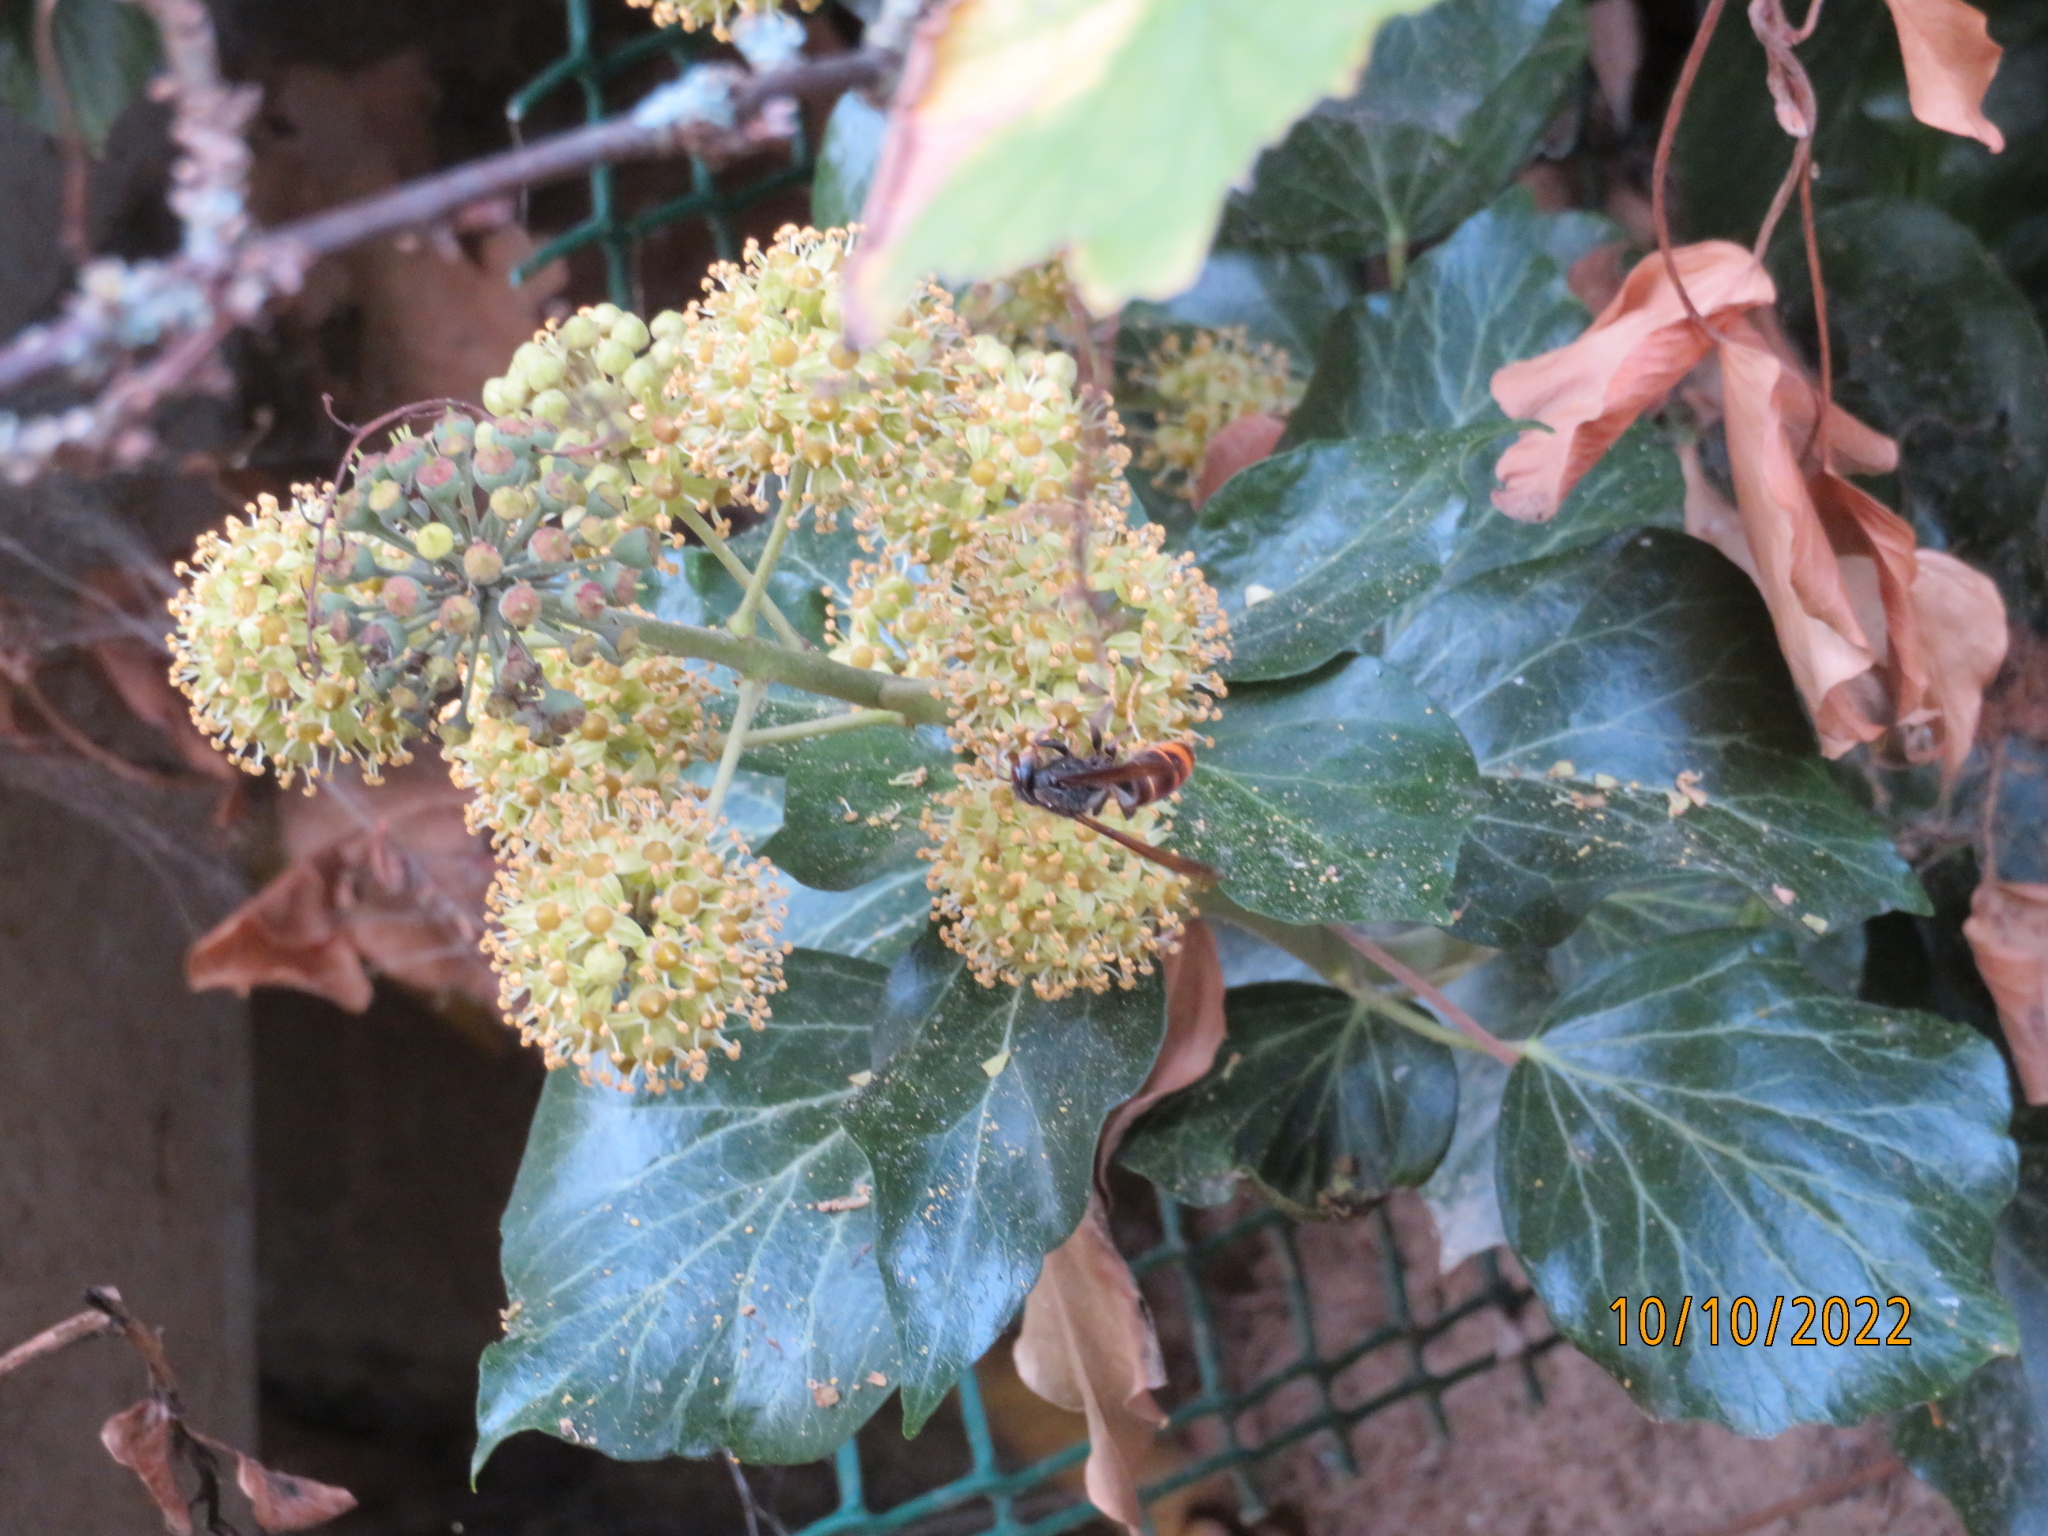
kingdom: Animalia
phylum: Arthropoda
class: Insecta
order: Hymenoptera
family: Vespidae
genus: Vespa
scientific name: Vespa velutina
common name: Asian hornet
